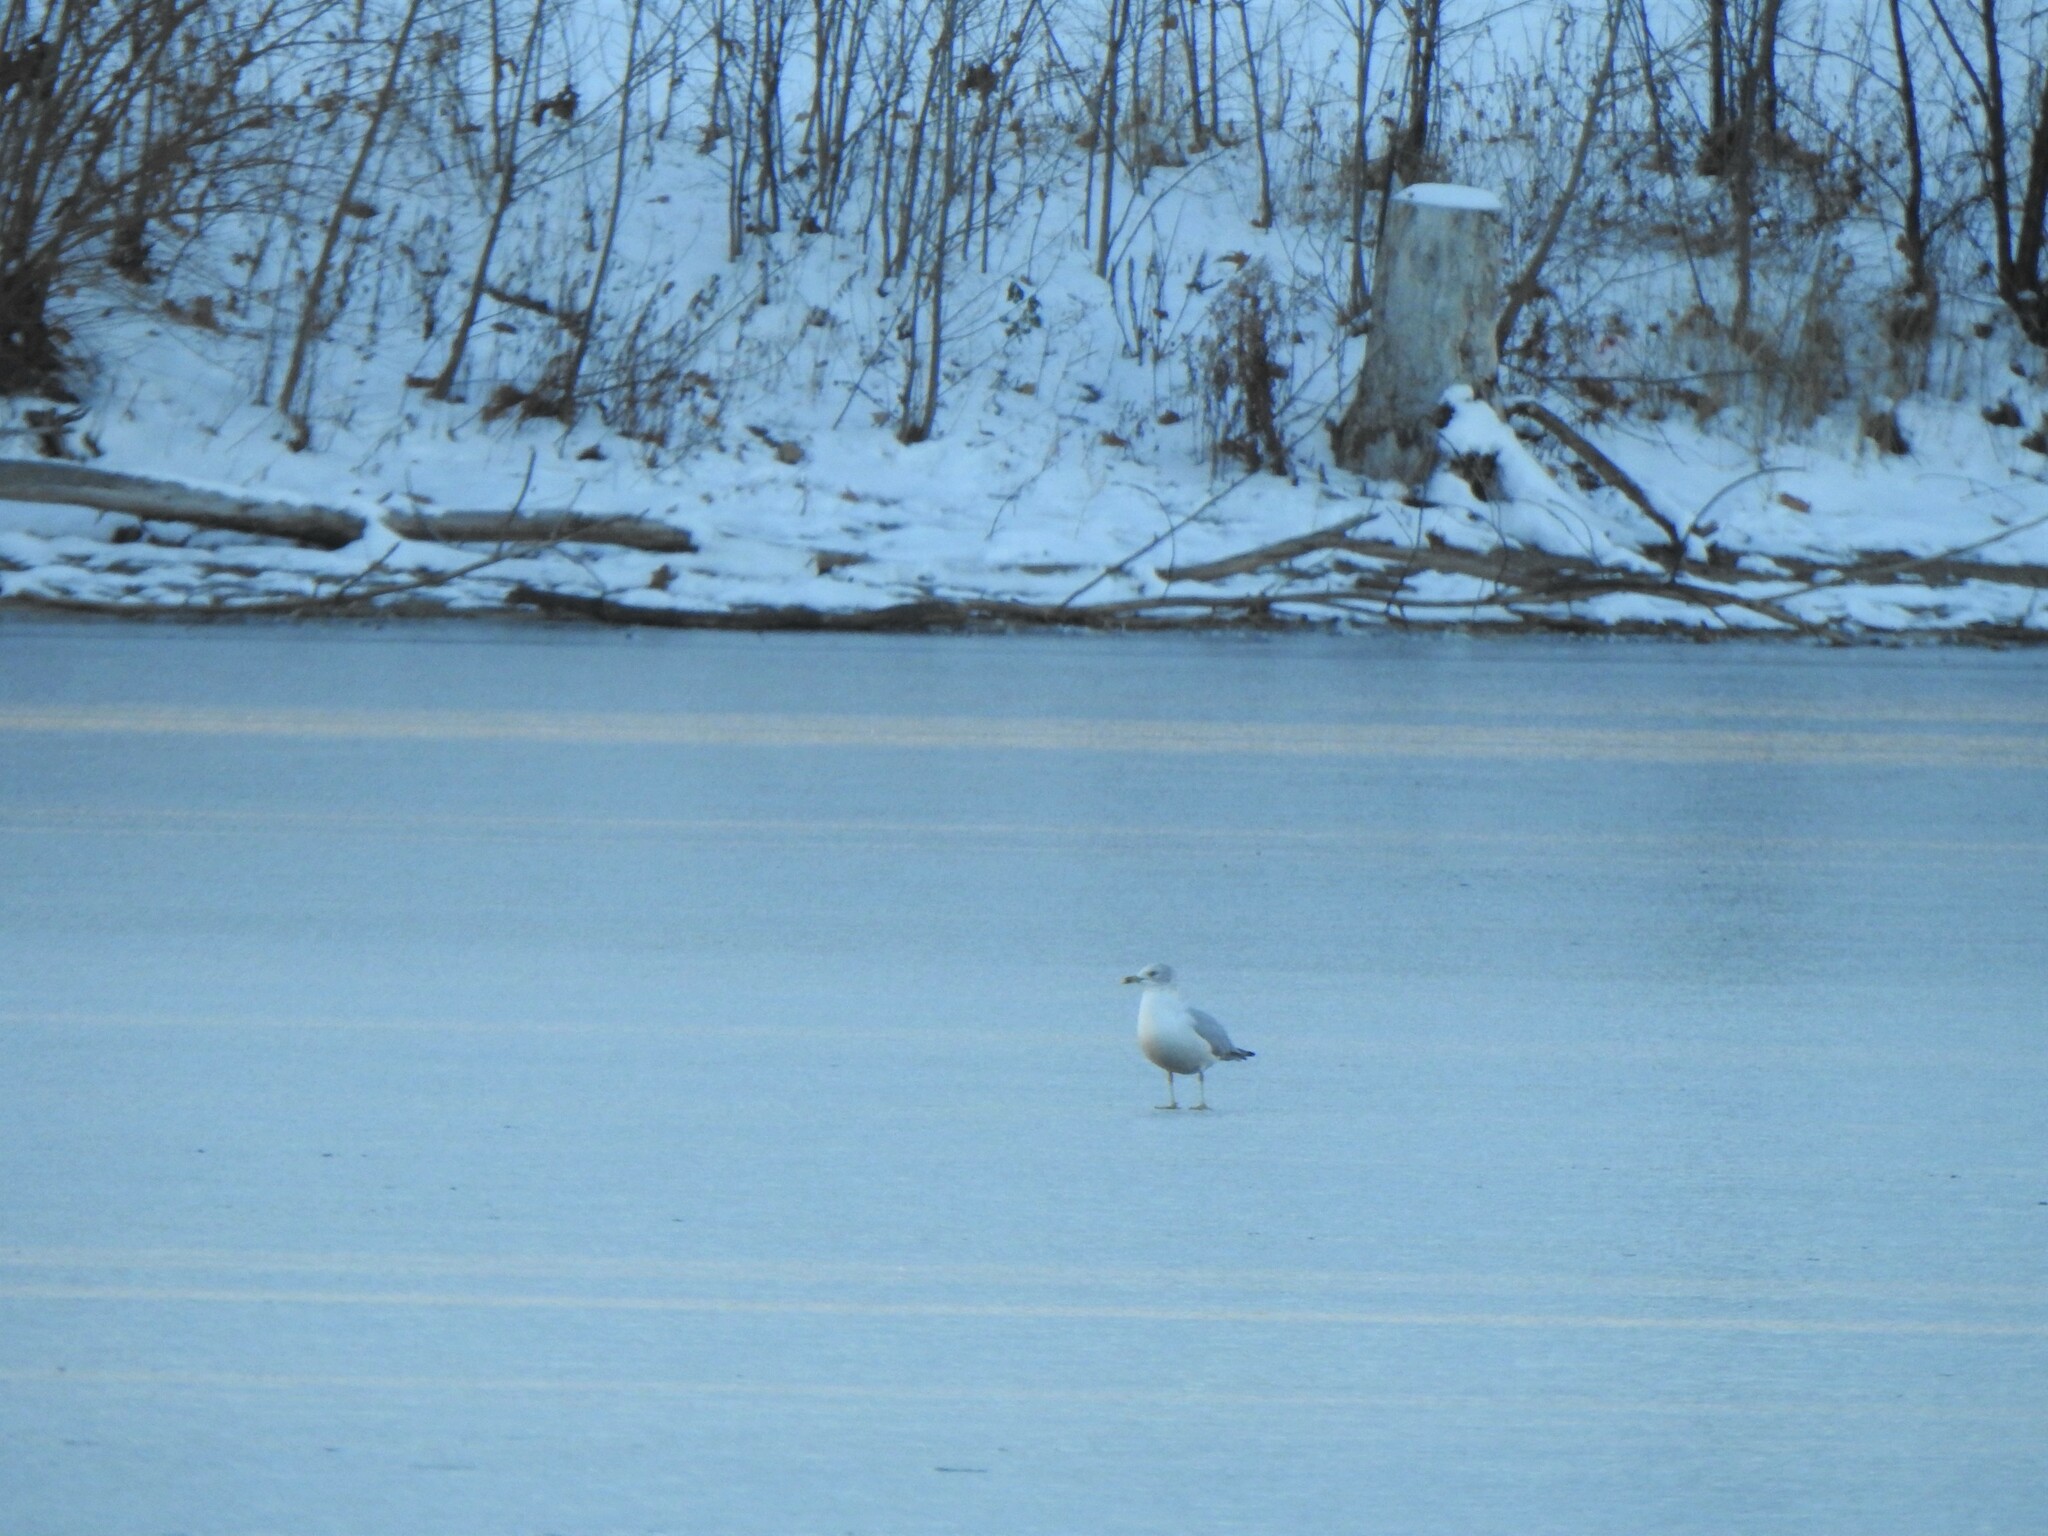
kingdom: Animalia
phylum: Chordata
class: Aves
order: Charadriiformes
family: Laridae
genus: Larus
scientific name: Larus delawarensis
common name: Ring-billed gull
